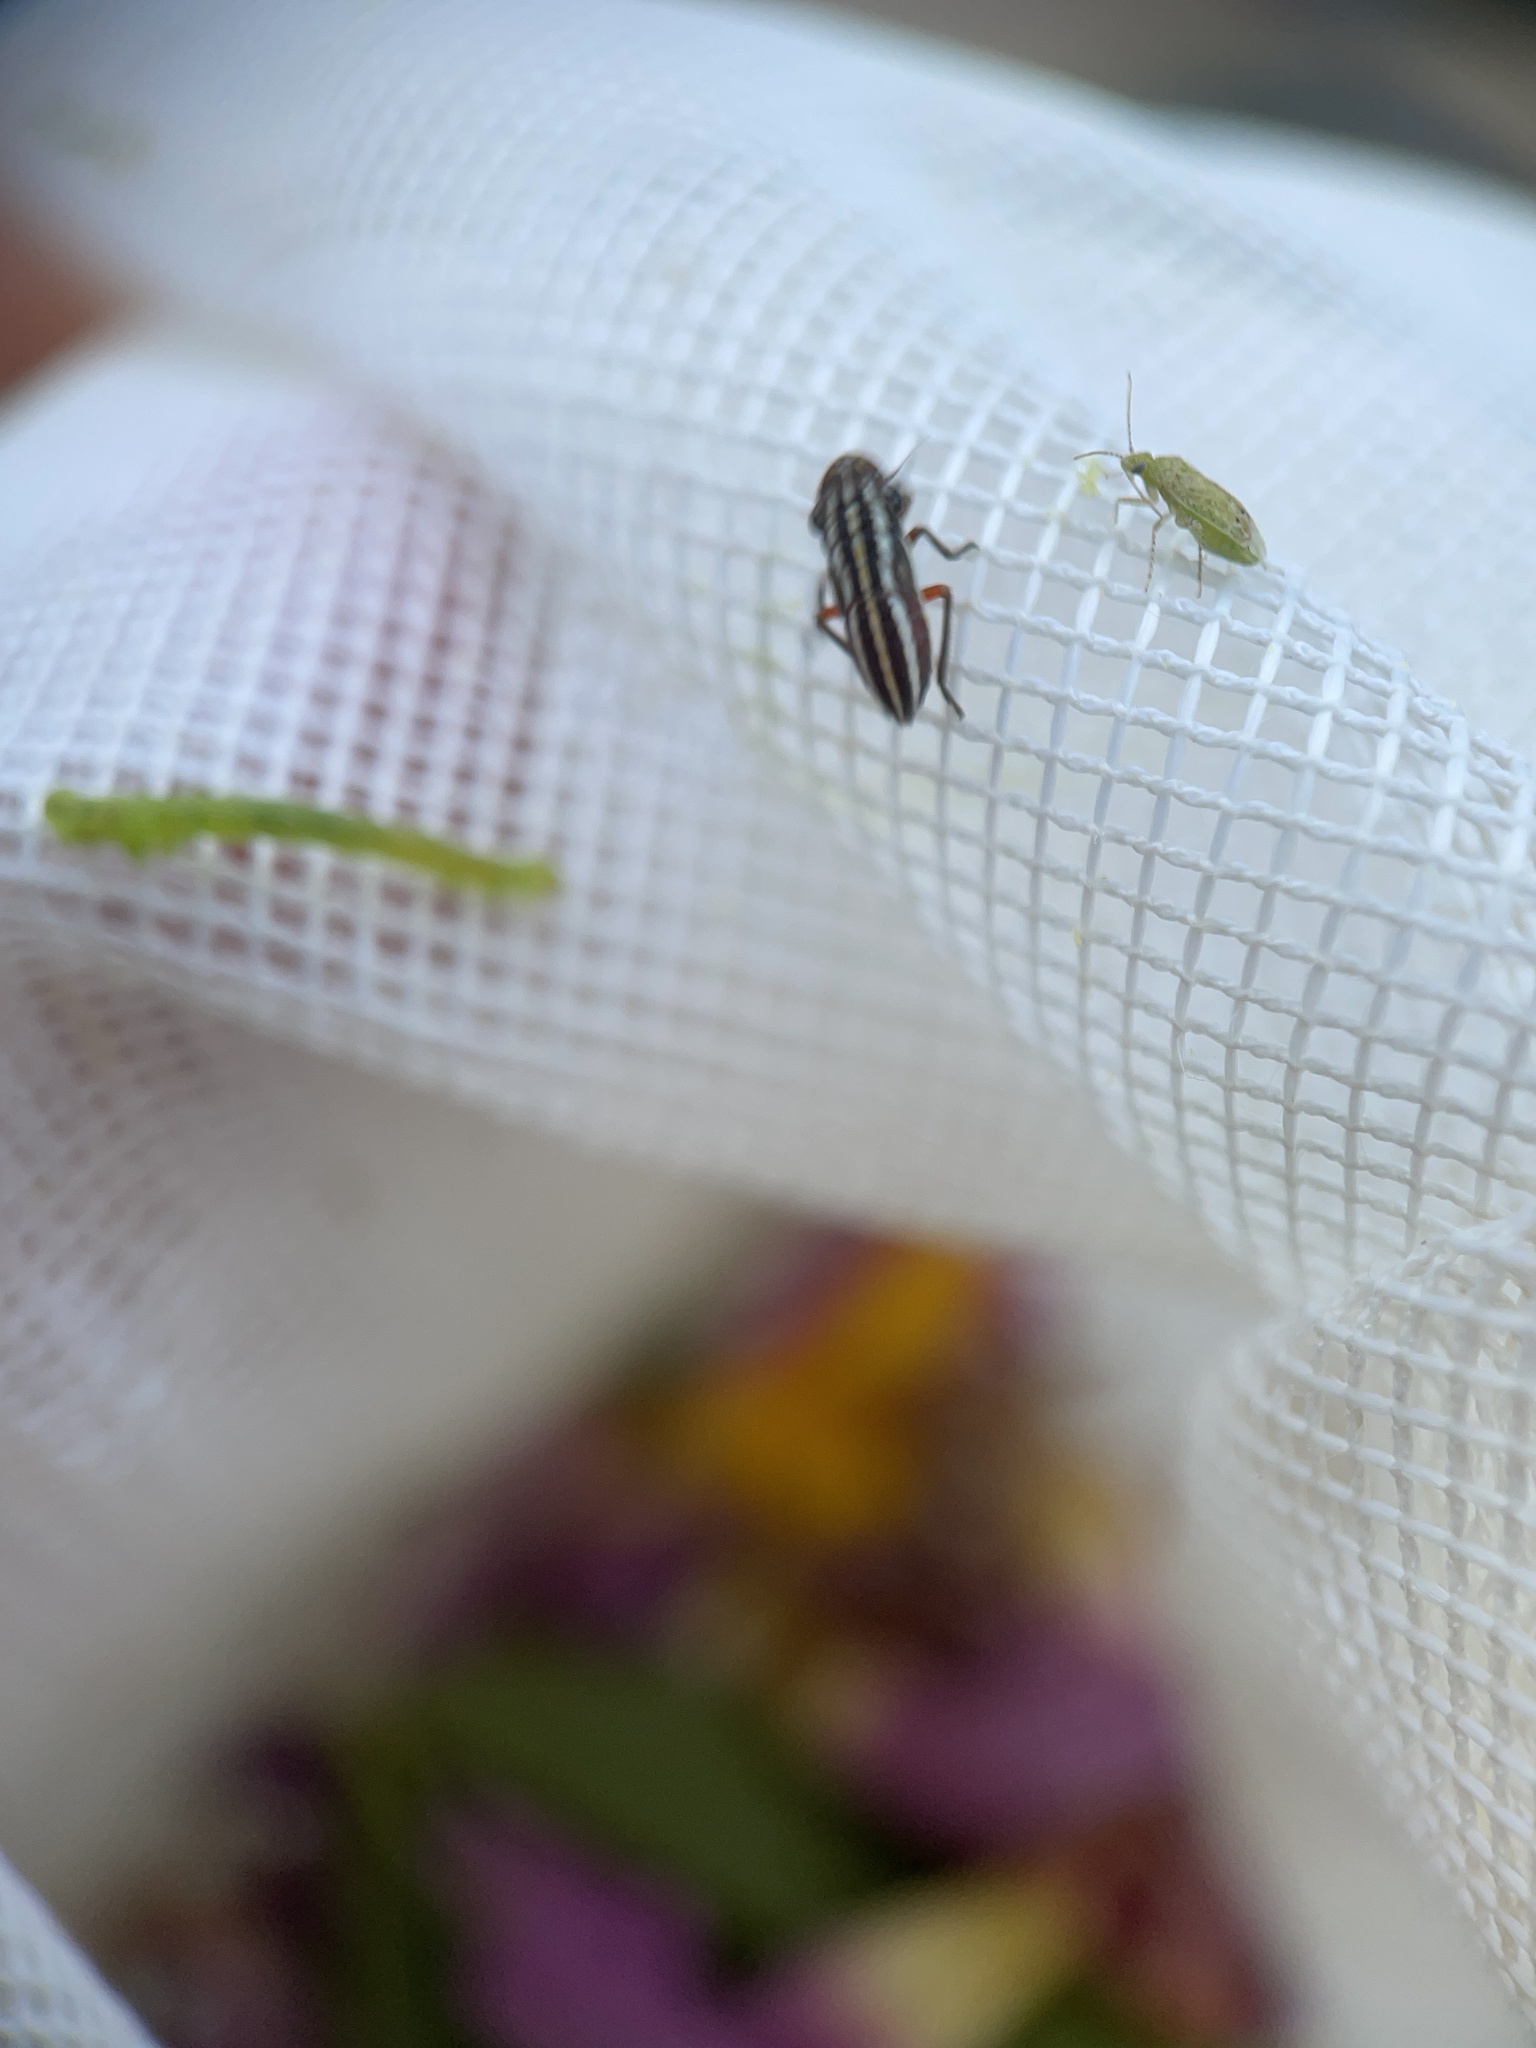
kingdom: Animalia
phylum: Arthropoda
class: Insecta
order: Hemiptera
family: Cicadellidae
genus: Cuerna
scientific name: Cuerna costalis
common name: Lateral-lined sharpshooter
